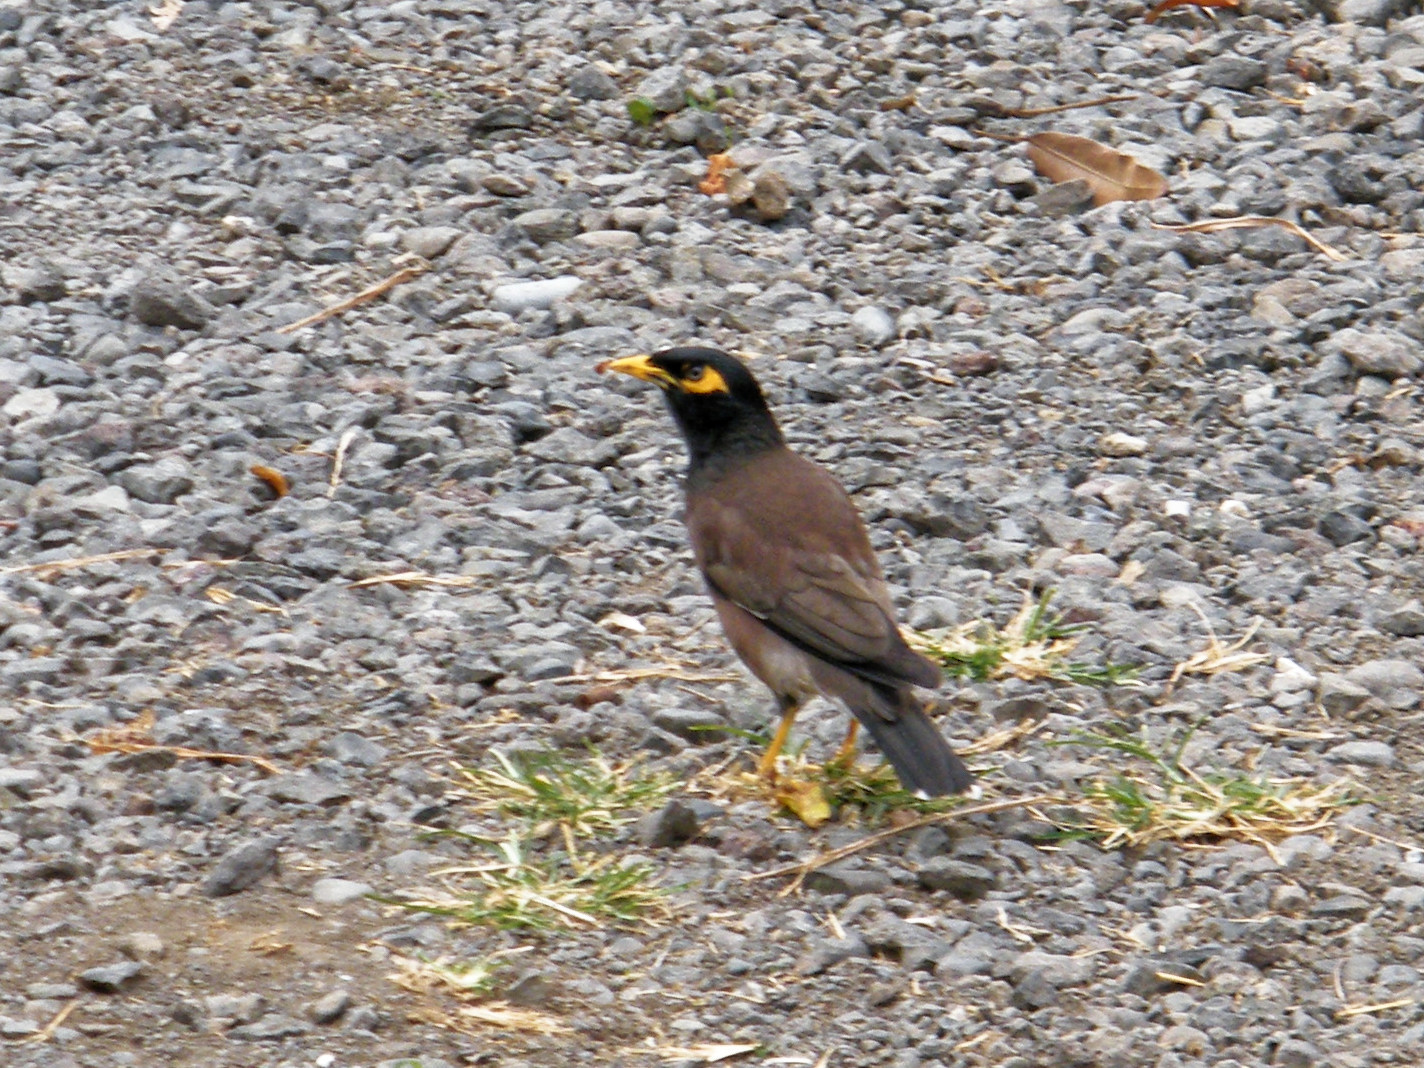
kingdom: Animalia
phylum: Chordata
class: Aves
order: Passeriformes
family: Sturnidae
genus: Acridotheres
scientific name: Acridotheres tristis
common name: Common myna
